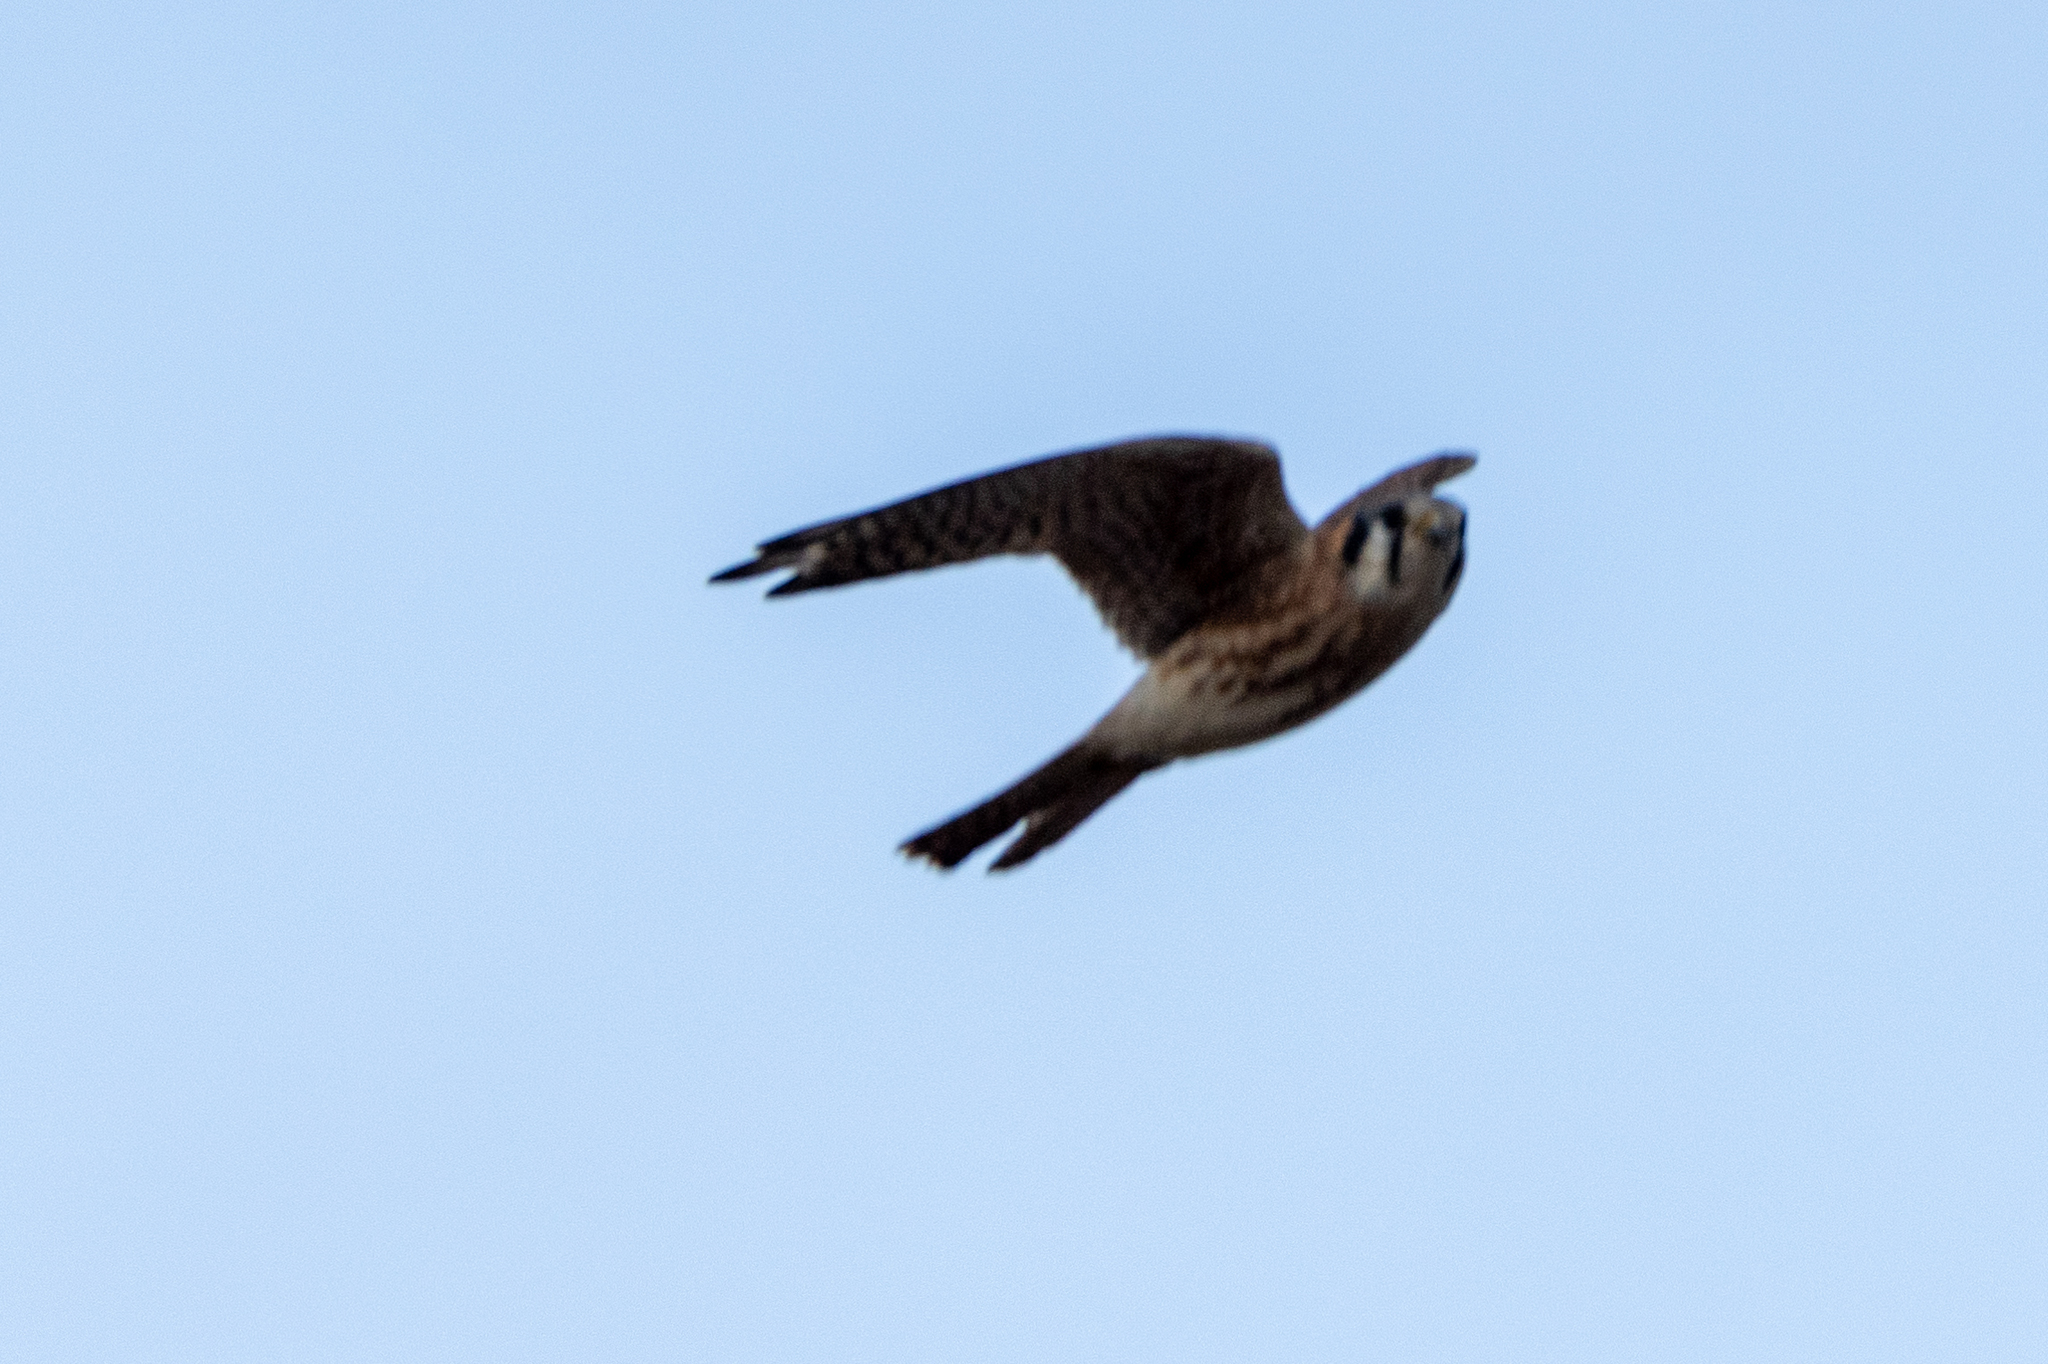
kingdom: Animalia
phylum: Chordata
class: Aves
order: Falconiformes
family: Falconidae
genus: Falco
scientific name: Falco sparverius
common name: American kestrel
